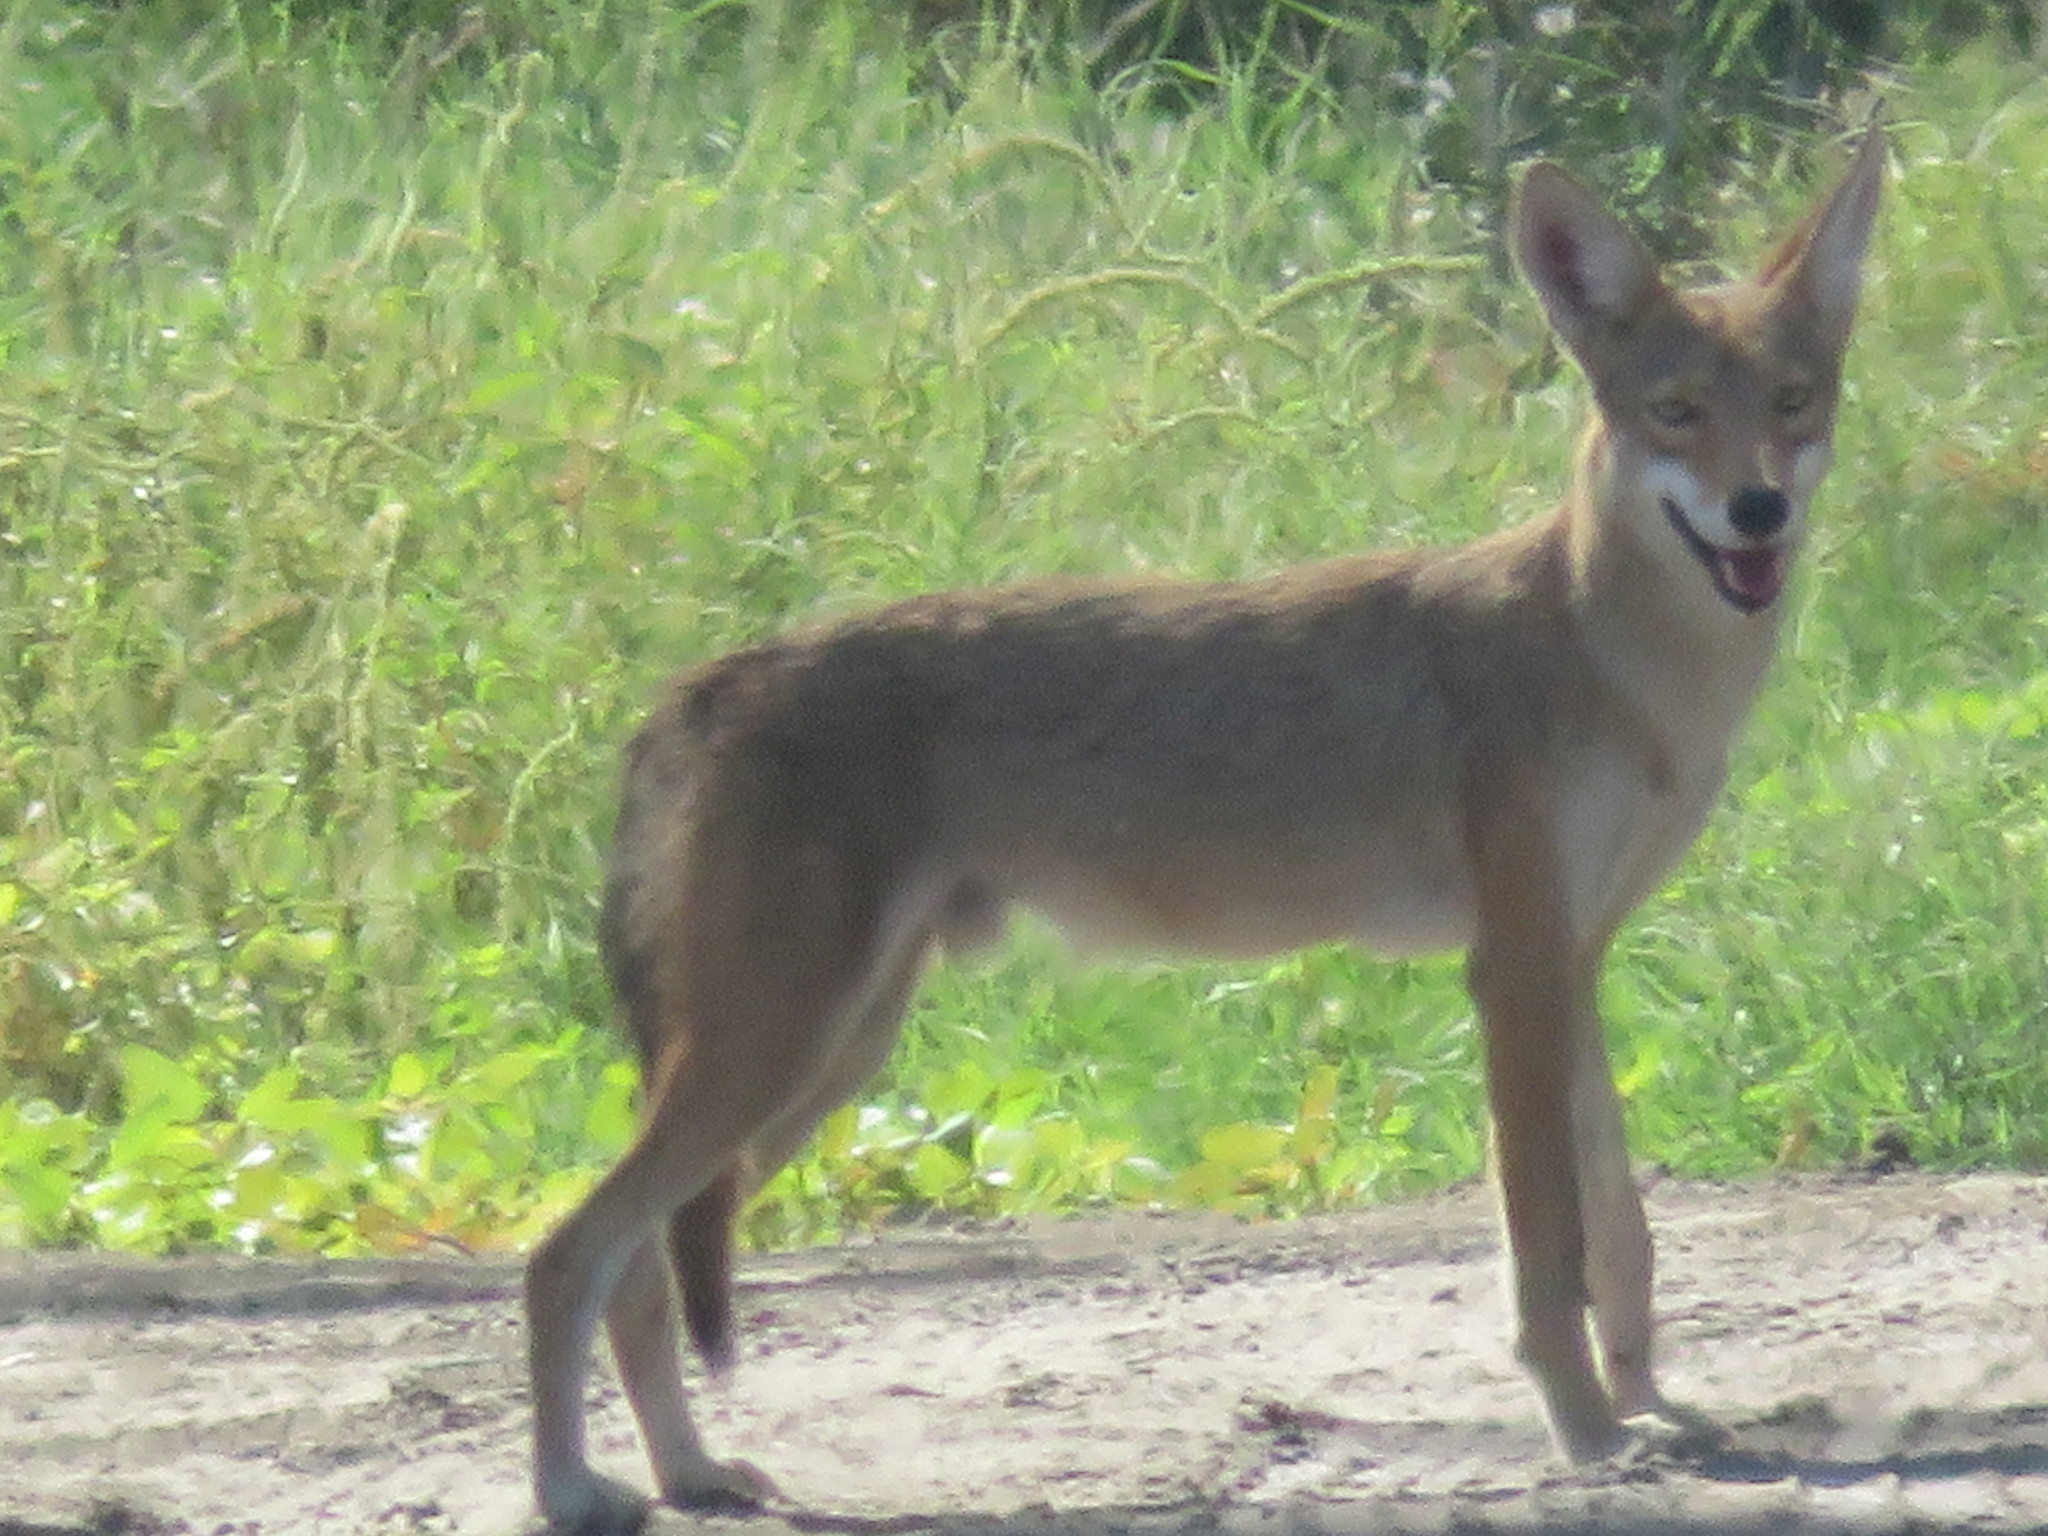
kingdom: Animalia
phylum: Chordata
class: Mammalia
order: Carnivora
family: Canidae
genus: Canis
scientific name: Canis latrans
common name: Coyote
